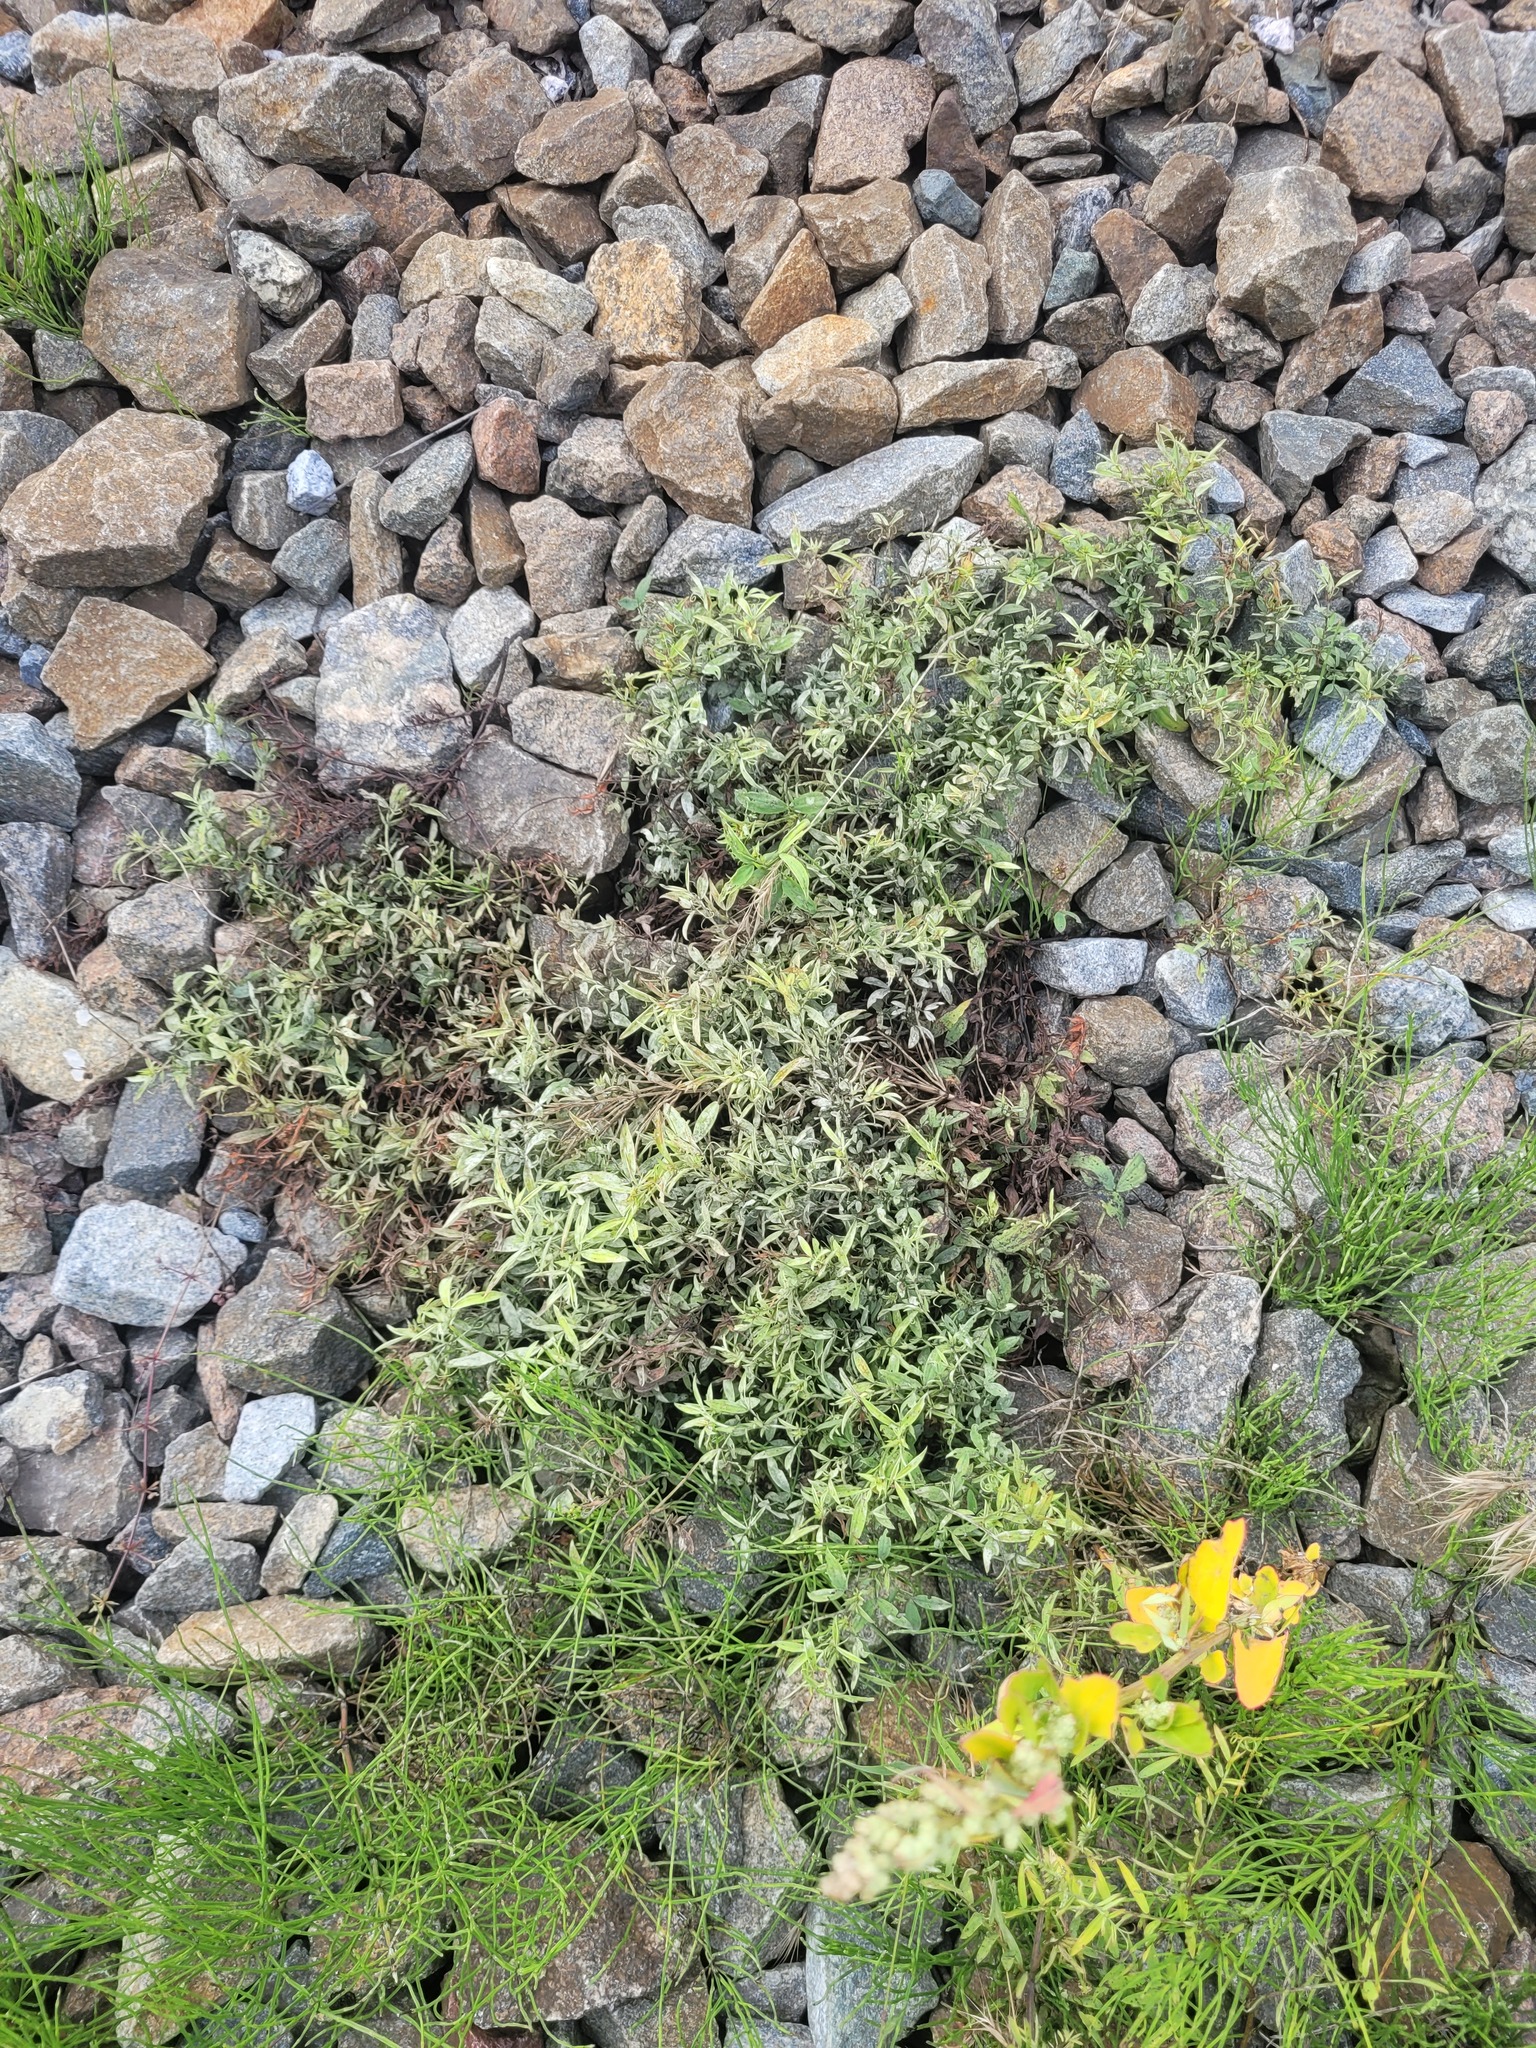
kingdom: Plantae
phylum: Tracheophyta
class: Magnoliopsida
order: Fabales
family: Fabaceae
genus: Lathyrus
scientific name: Lathyrus pratensis
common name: Meadow vetchling
